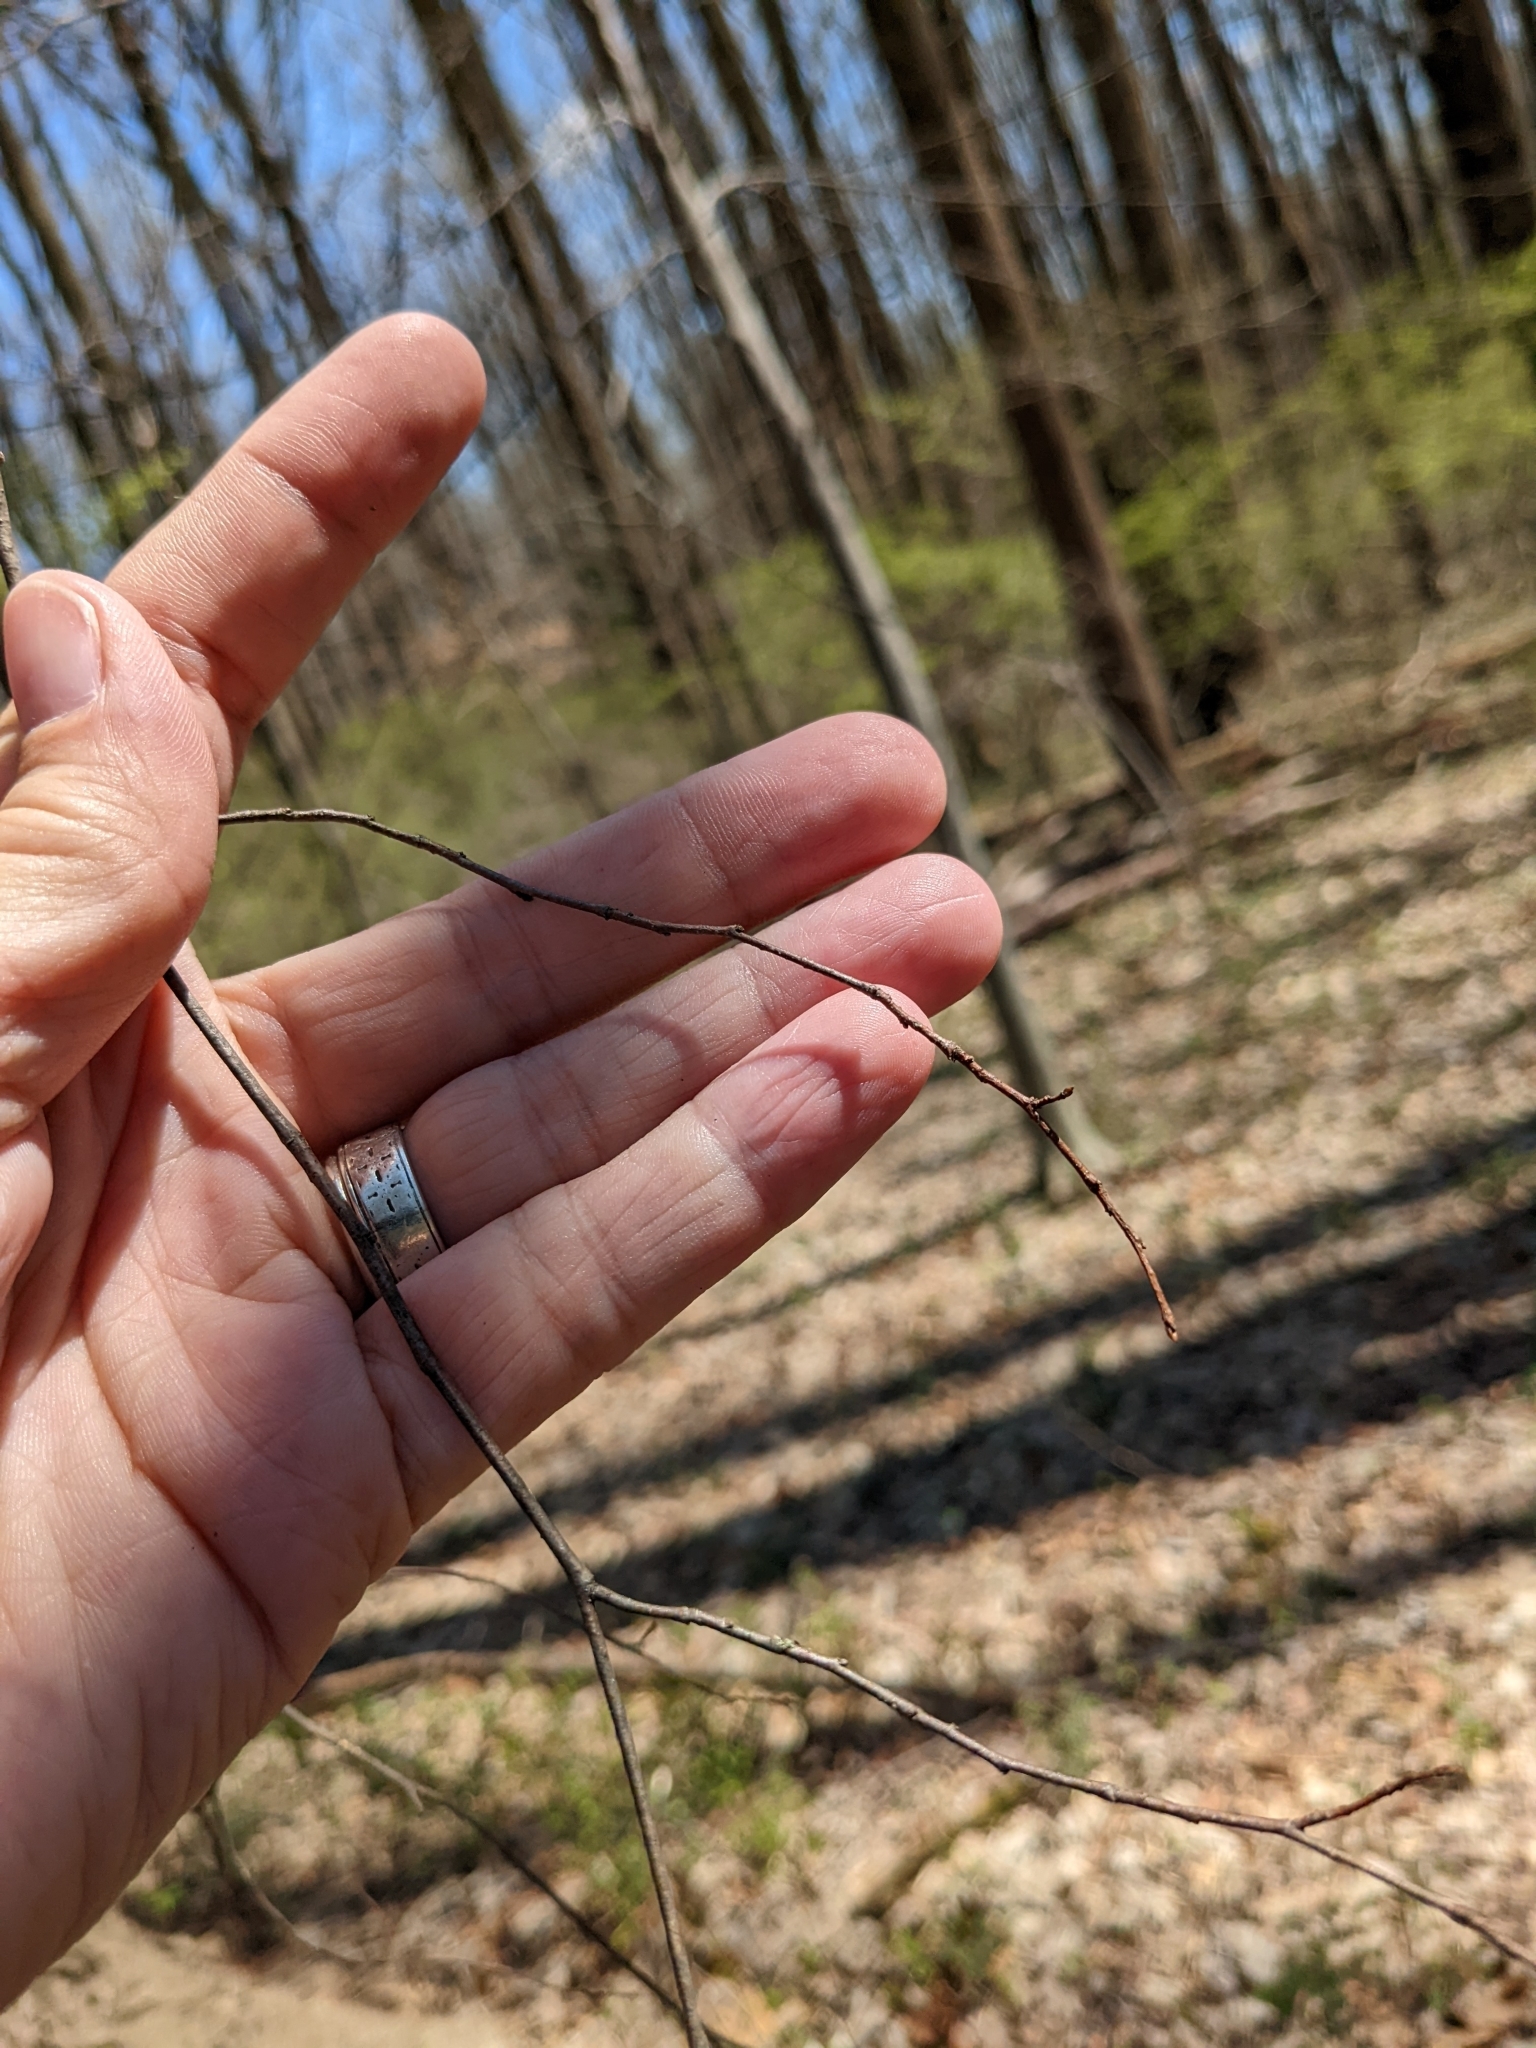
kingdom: Plantae
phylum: Tracheophyta
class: Magnoliopsida
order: Fagales
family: Betulaceae
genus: Carpinus
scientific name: Carpinus caroliniana
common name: American hornbeam
